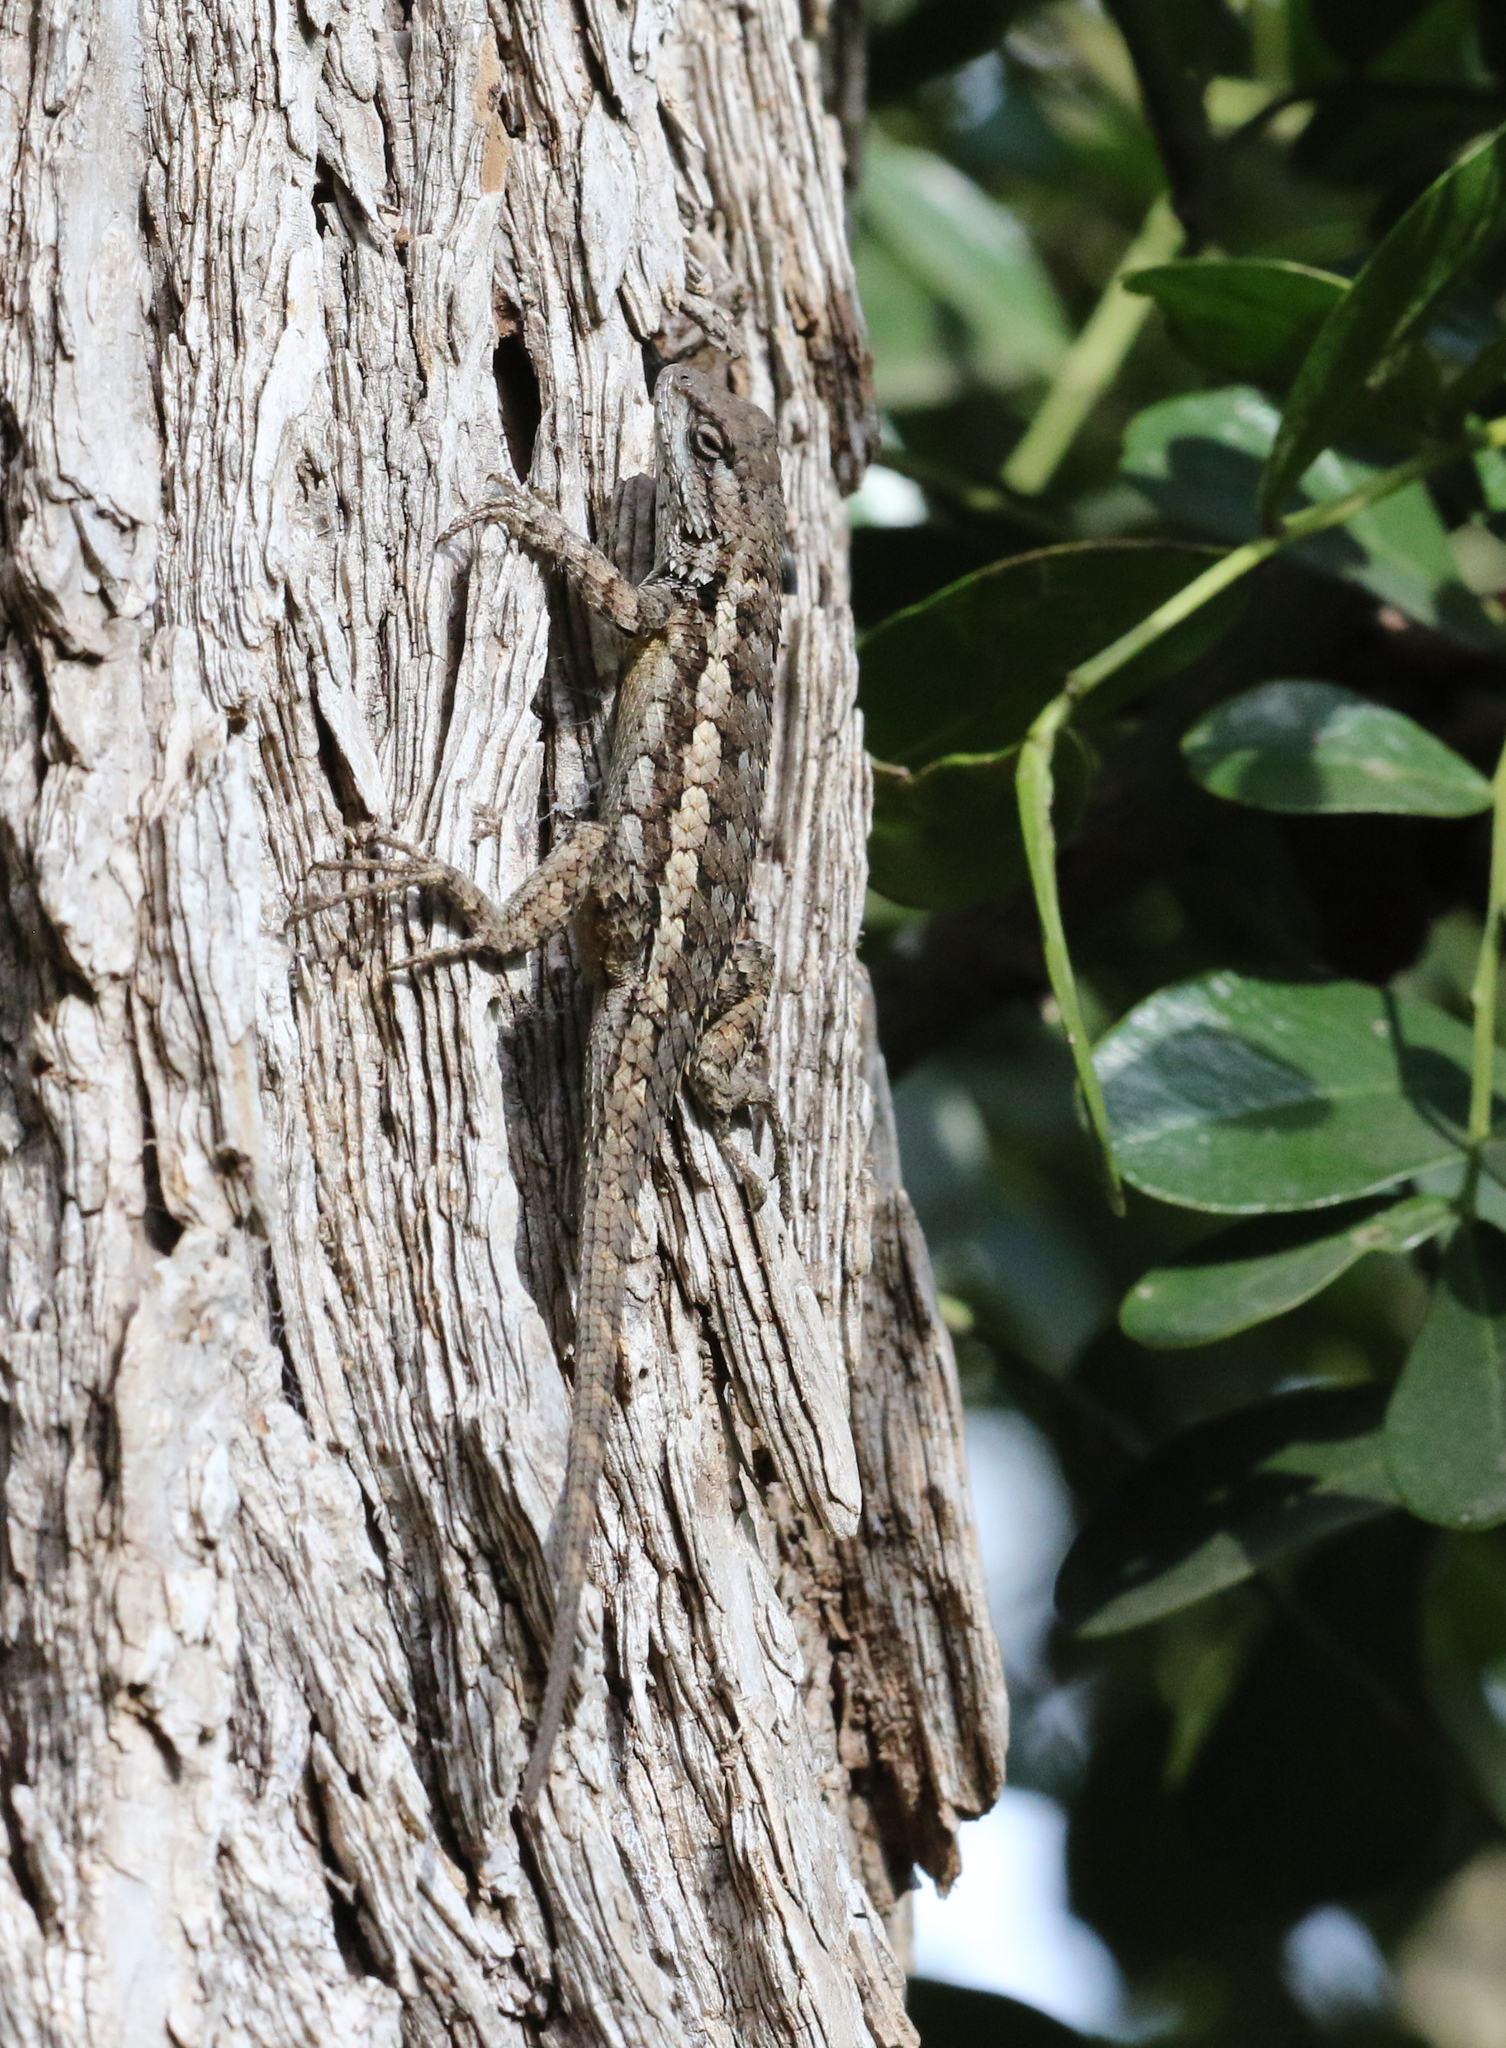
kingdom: Animalia
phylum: Chordata
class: Squamata
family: Phrynosomatidae
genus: Sceloporus
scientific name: Sceloporus olivaceus
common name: Texas spiny lizard
